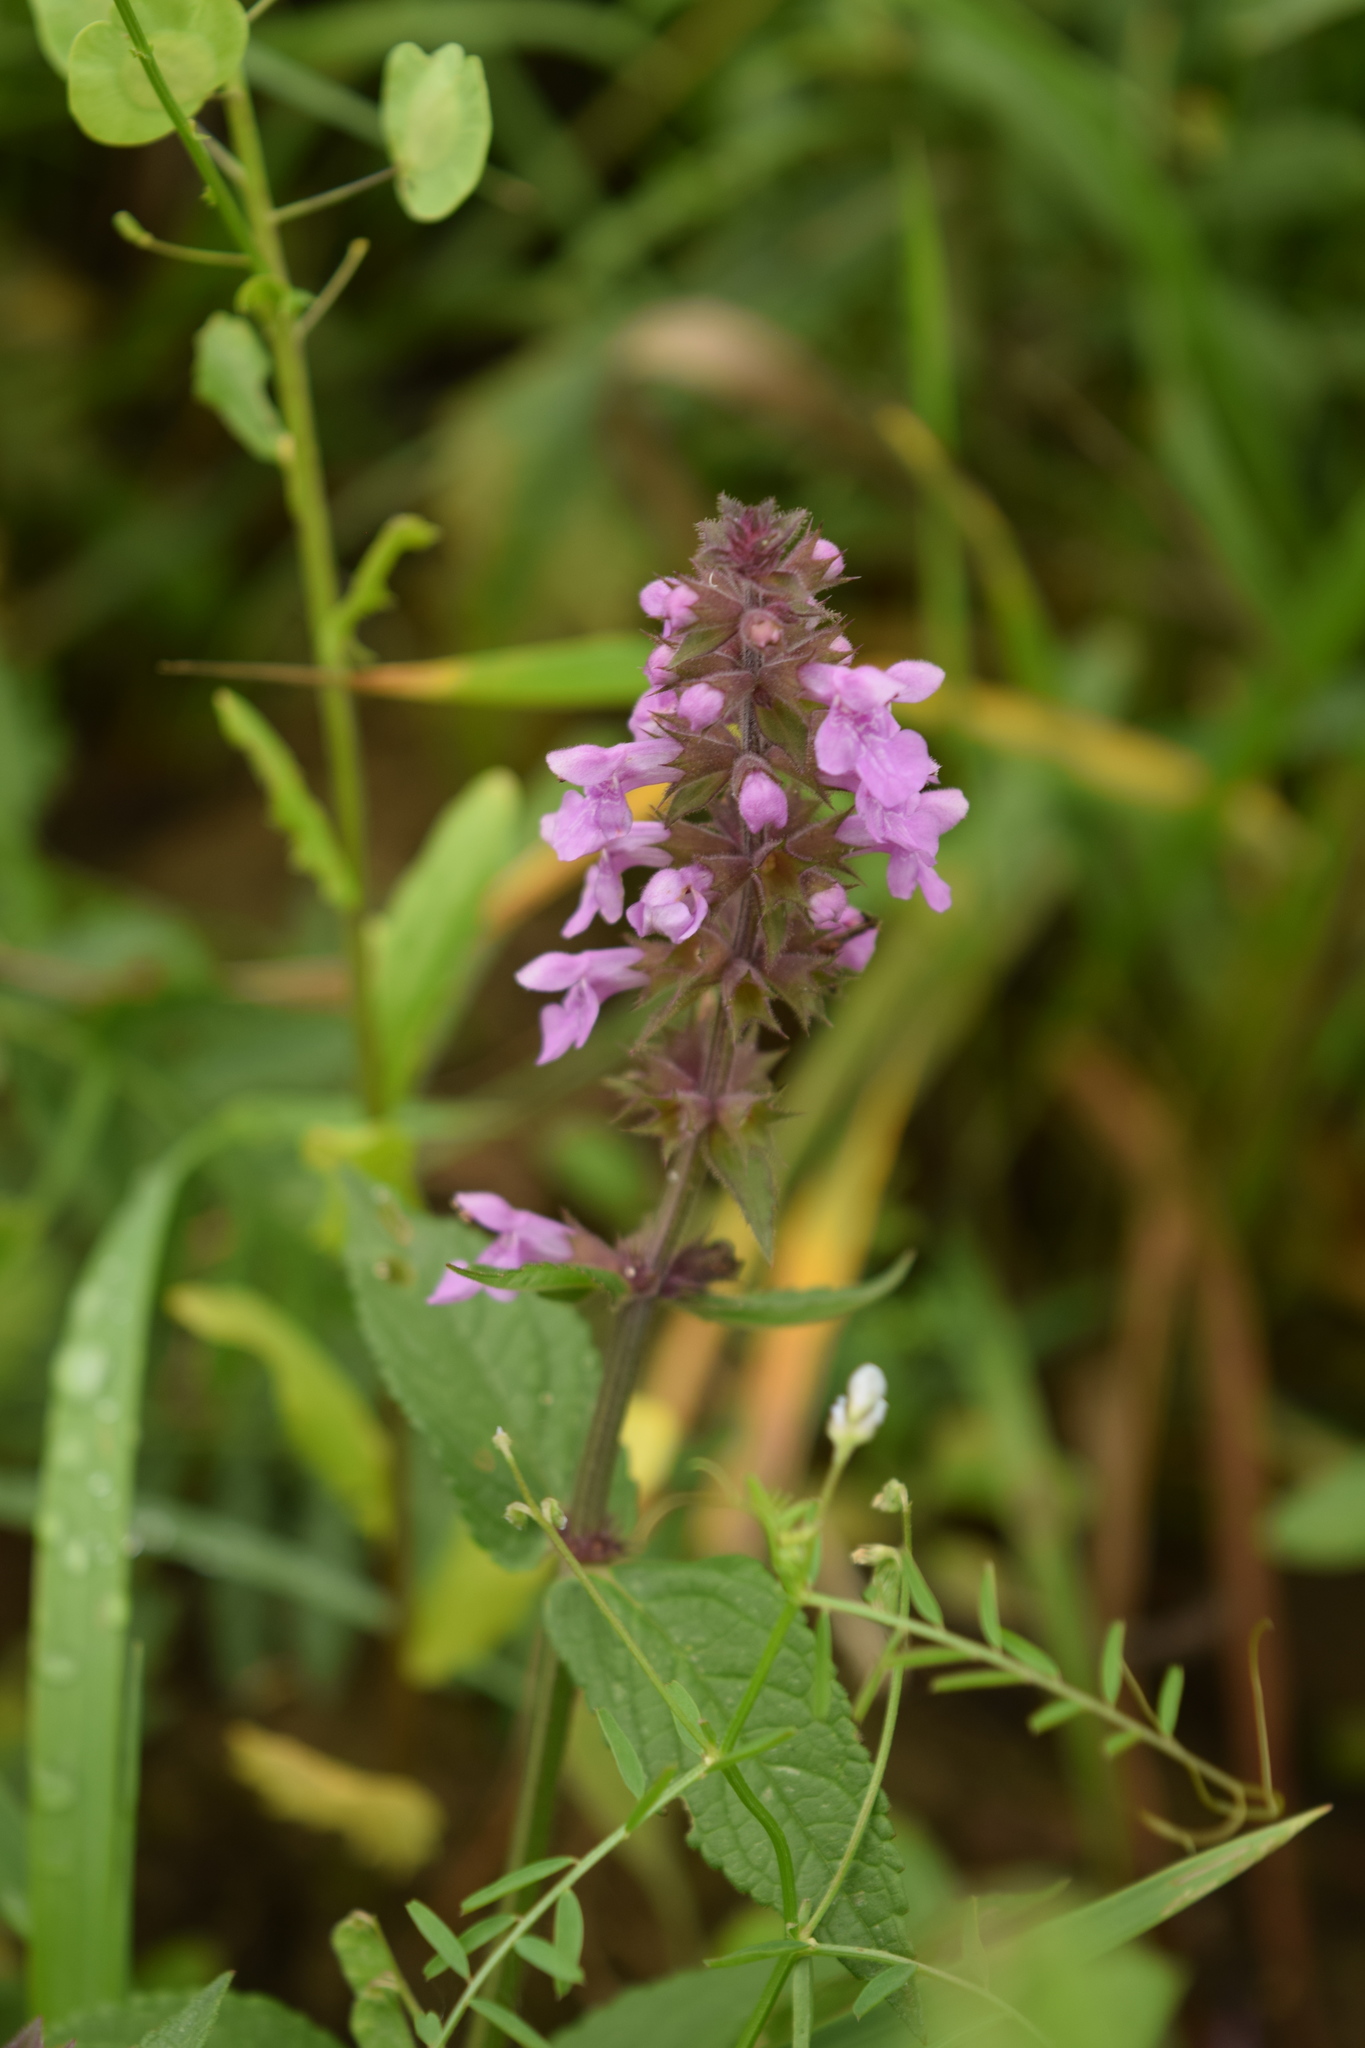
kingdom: Plantae
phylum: Tracheophyta
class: Magnoliopsida
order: Lamiales
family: Lamiaceae
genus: Stachys
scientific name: Stachys palustris
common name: Marsh woundwort
